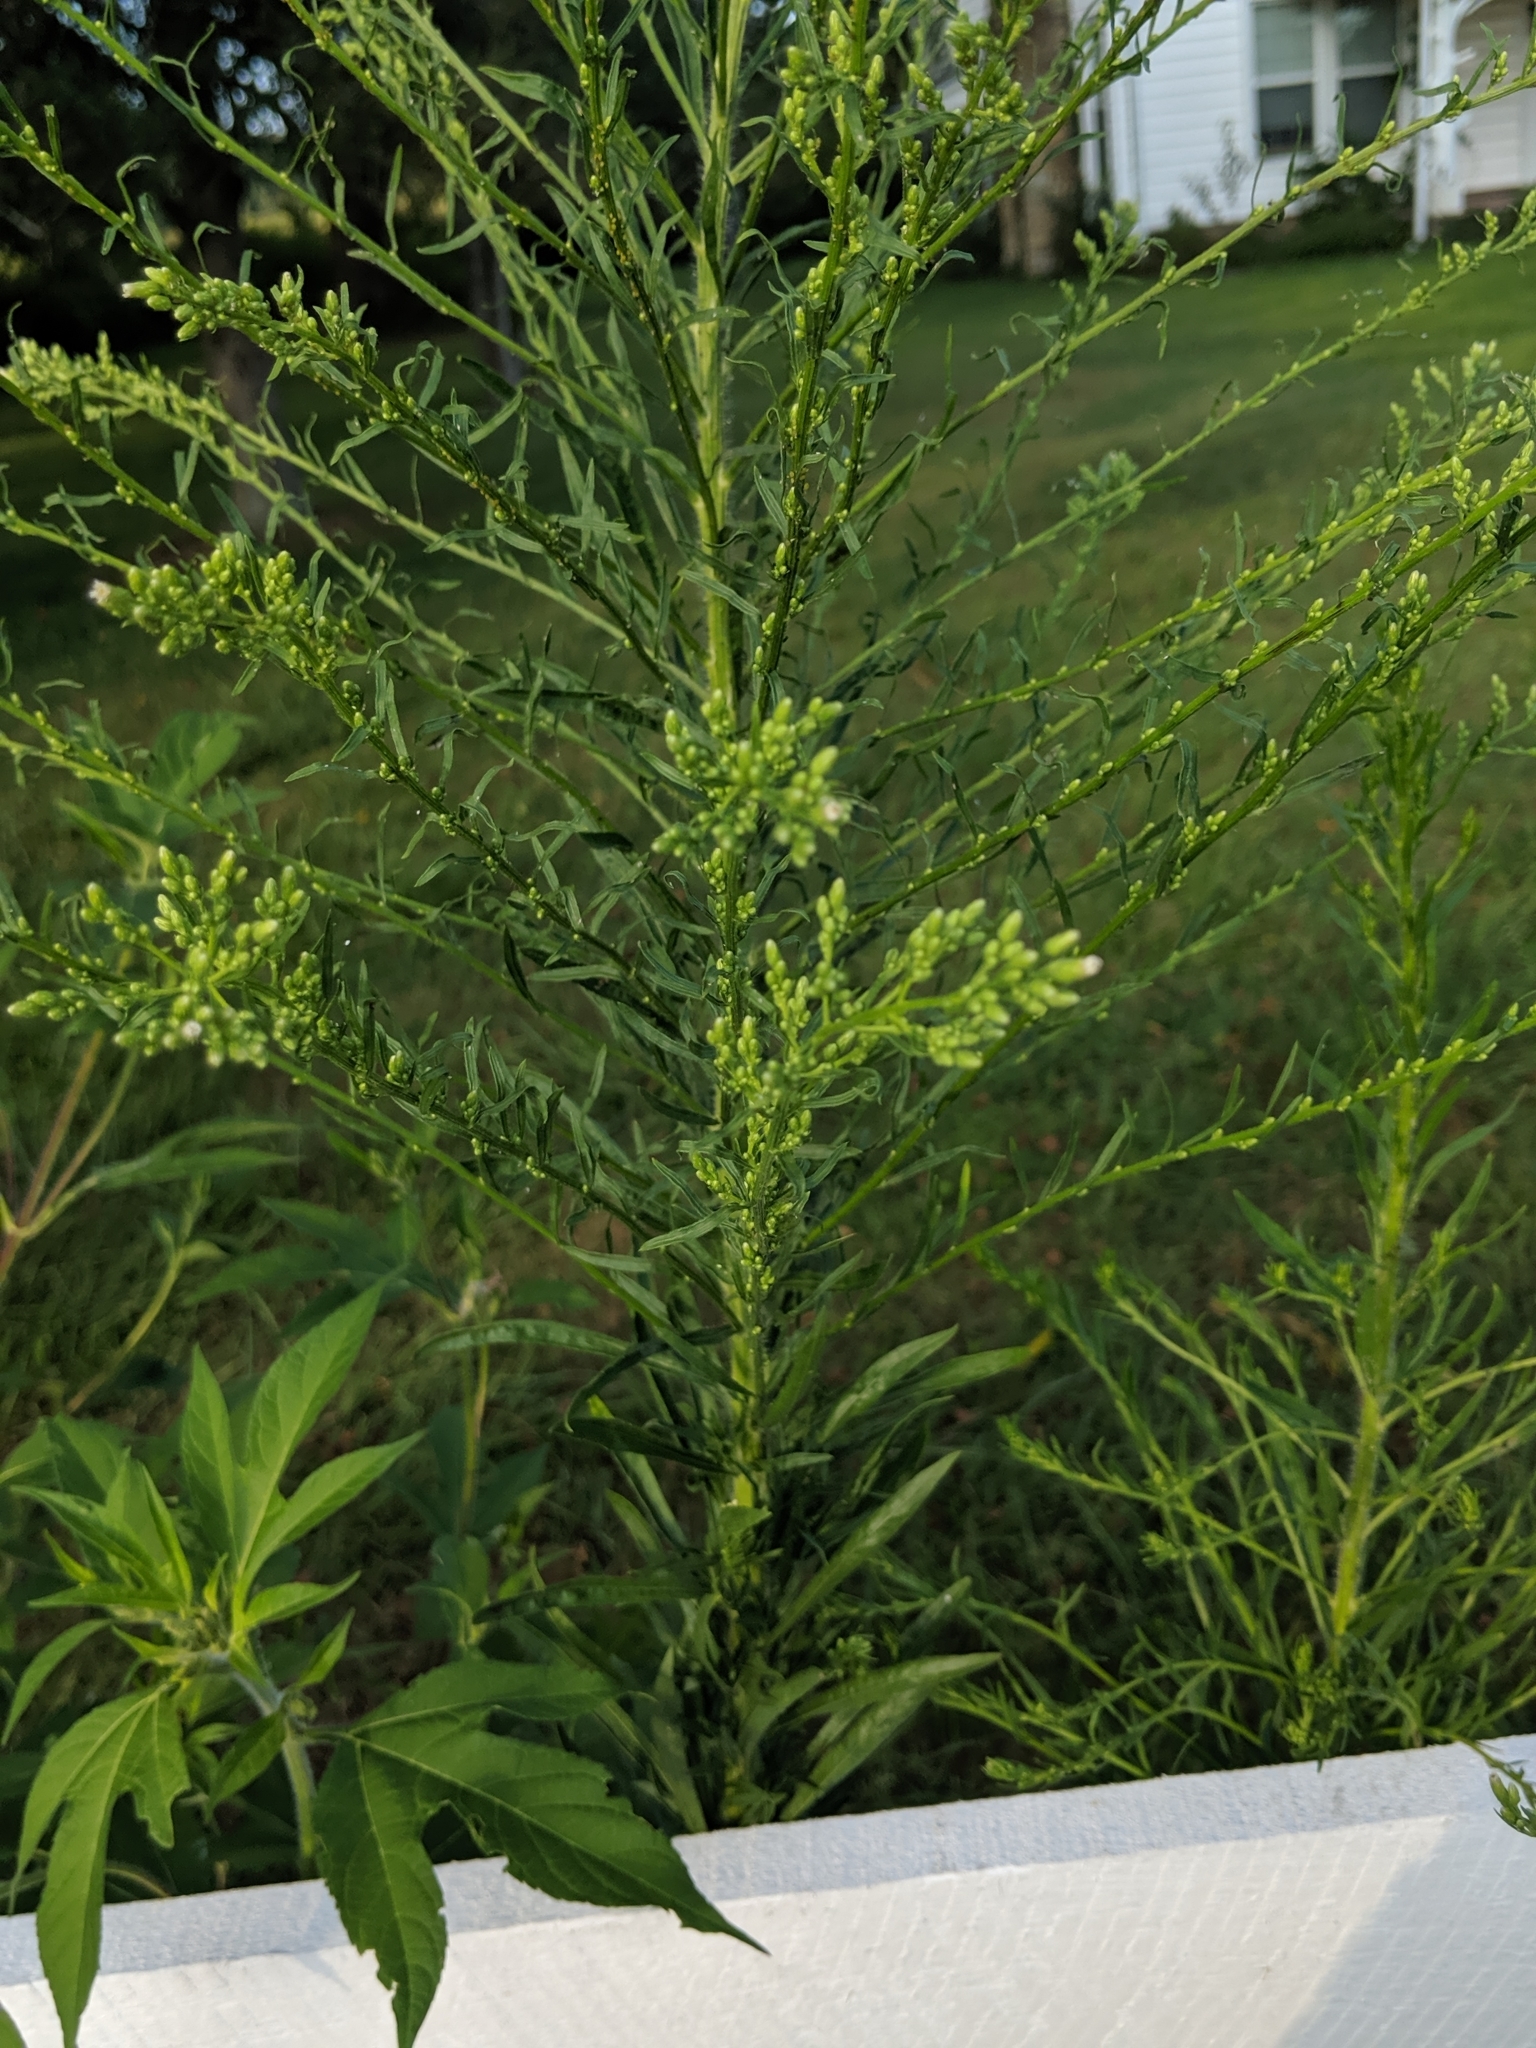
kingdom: Plantae
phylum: Tracheophyta
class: Magnoliopsida
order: Asterales
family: Asteraceae
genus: Erigeron
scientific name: Erigeron canadensis
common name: Canadian fleabane
